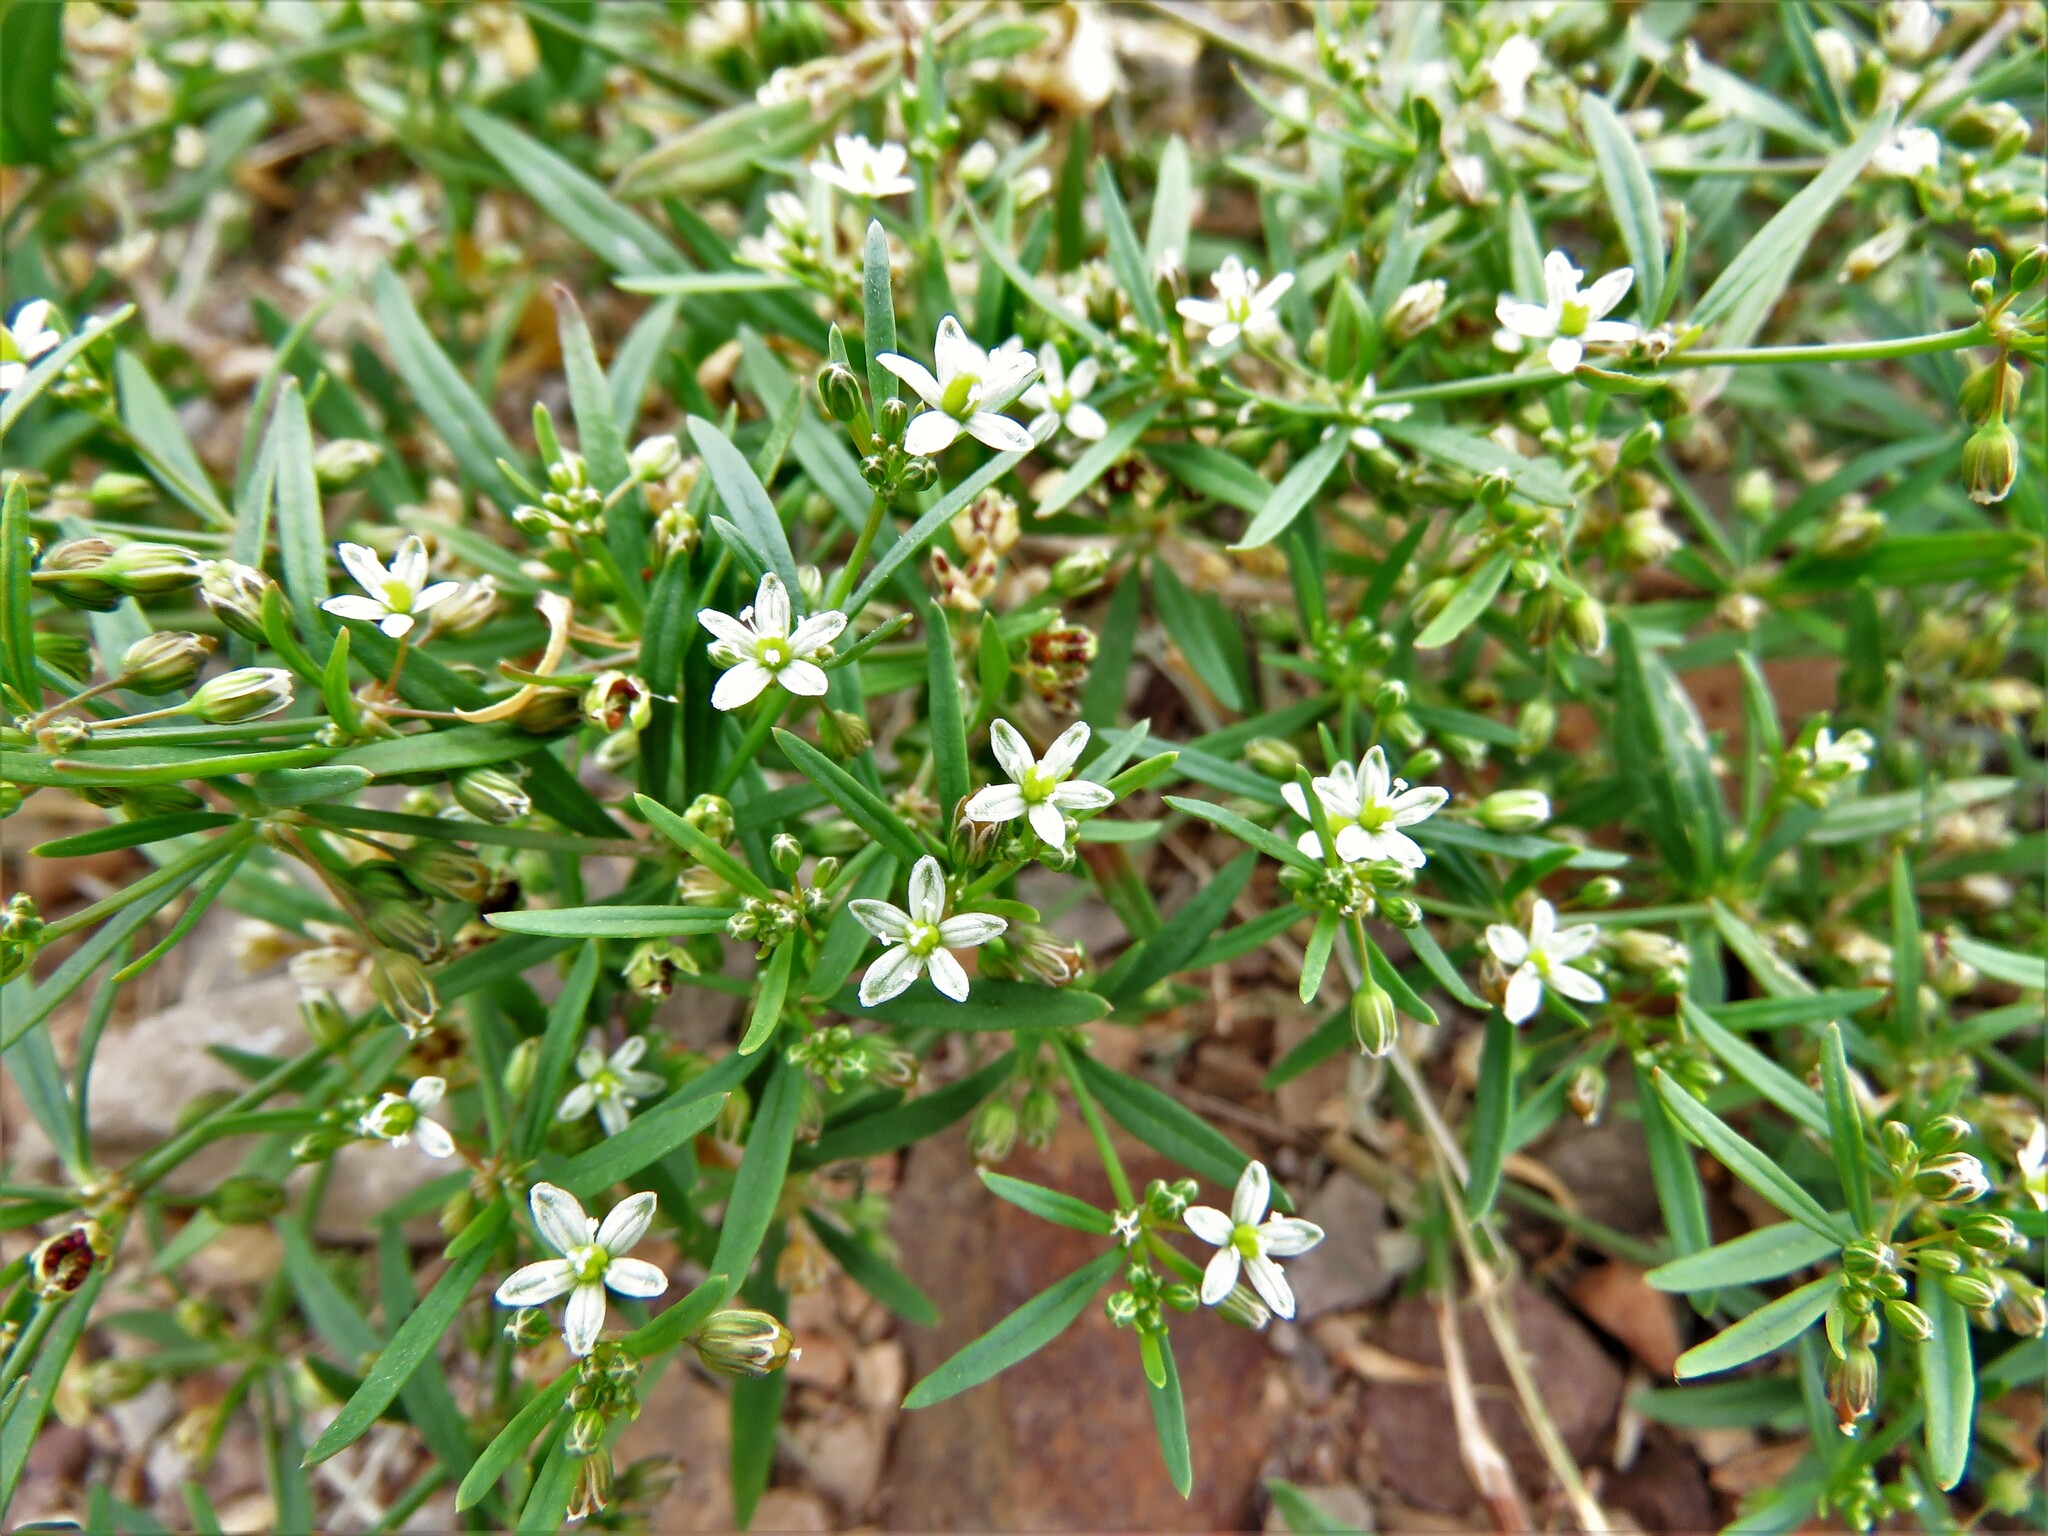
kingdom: Plantae
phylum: Tracheophyta
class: Magnoliopsida
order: Caryophyllales
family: Molluginaceae
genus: Mollugo
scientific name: Mollugo verticillata
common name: Green carpetweed
